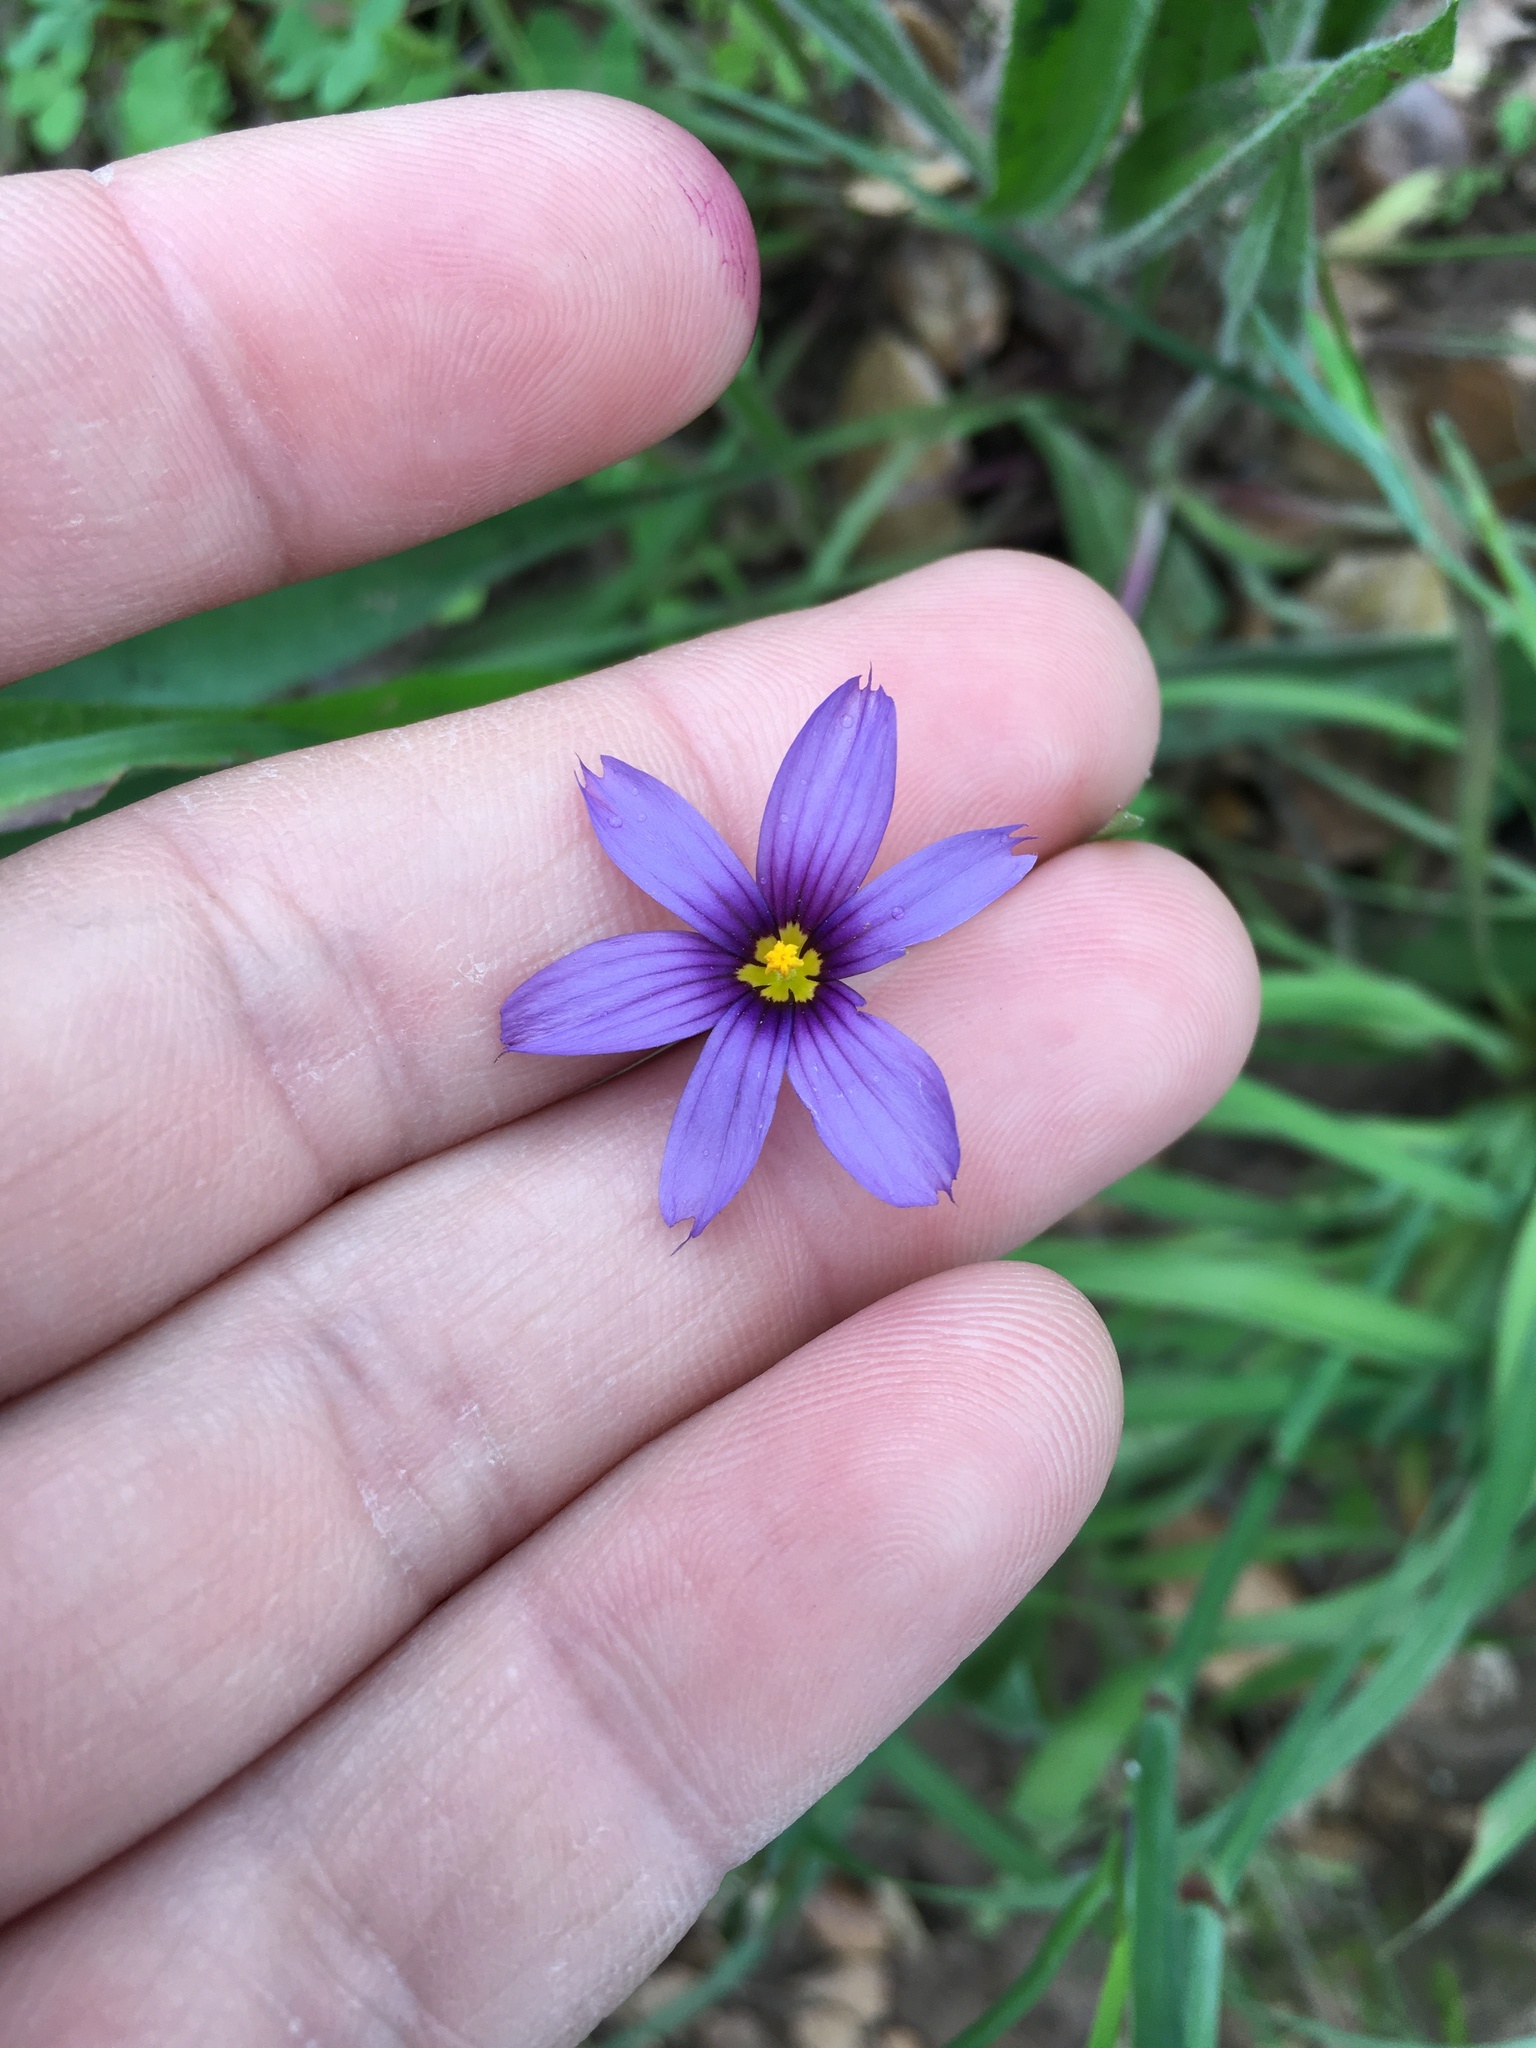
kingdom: Plantae
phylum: Tracheophyta
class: Liliopsida
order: Asparagales
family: Iridaceae
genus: Sisyrinchium
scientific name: Sisyrinchium bellum
